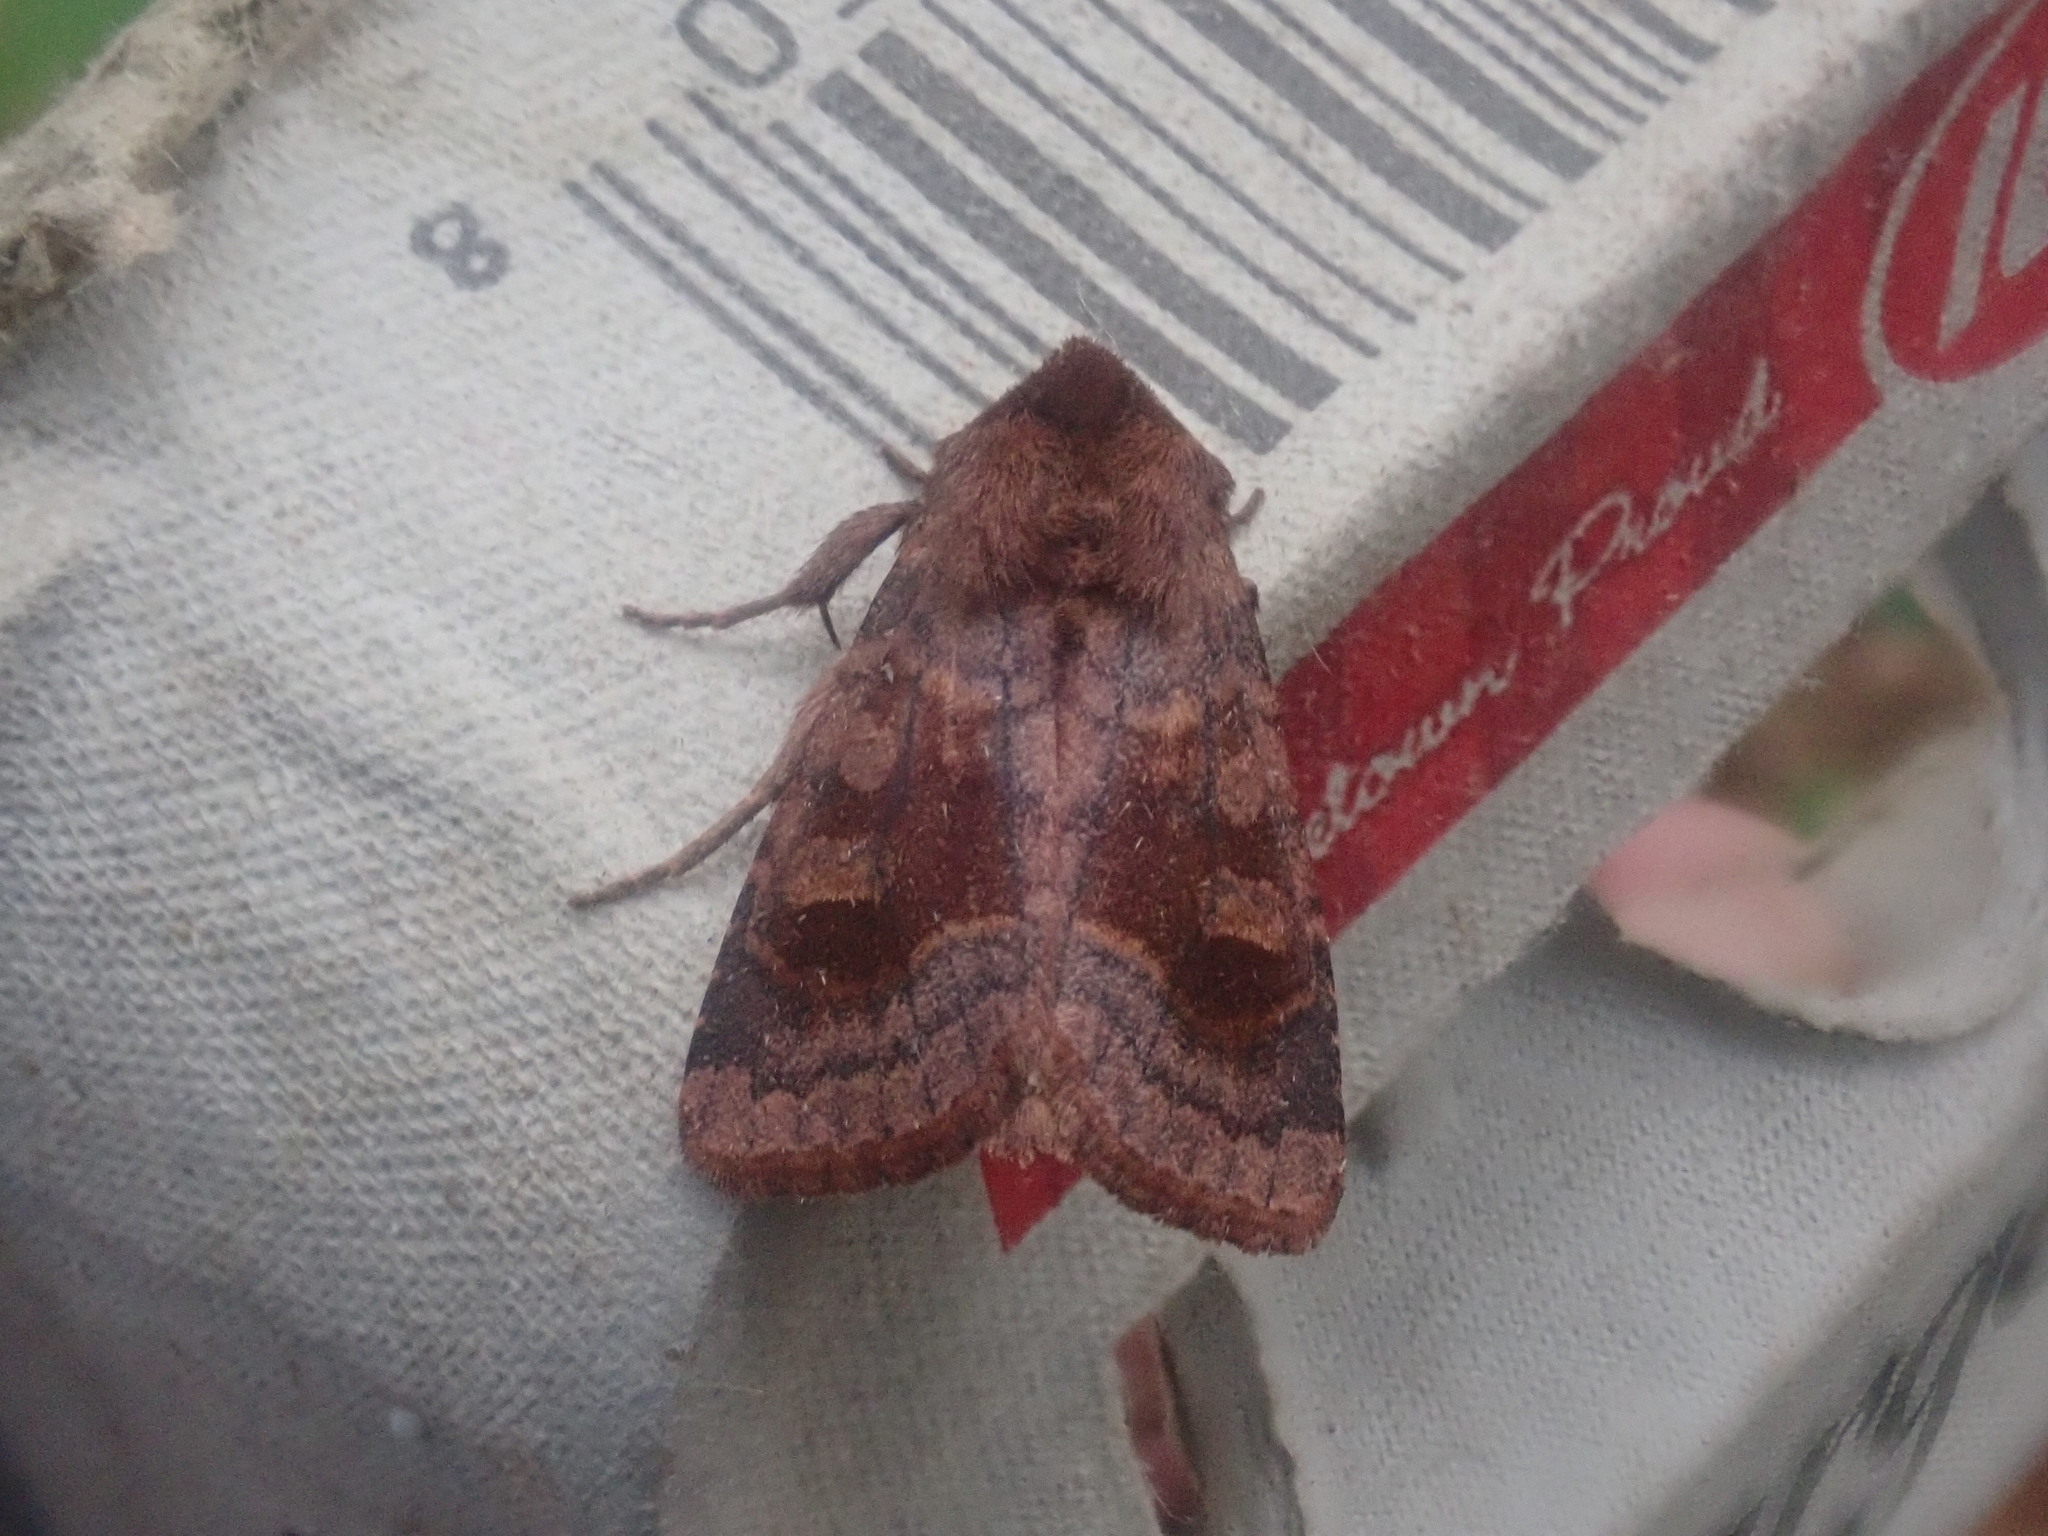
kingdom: Animalia
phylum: Arthropoda
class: Insecta
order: Lepidoptera
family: Noctuidae
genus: Nephelodes
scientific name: Nephelodes minians
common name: Bronzed cutworm
